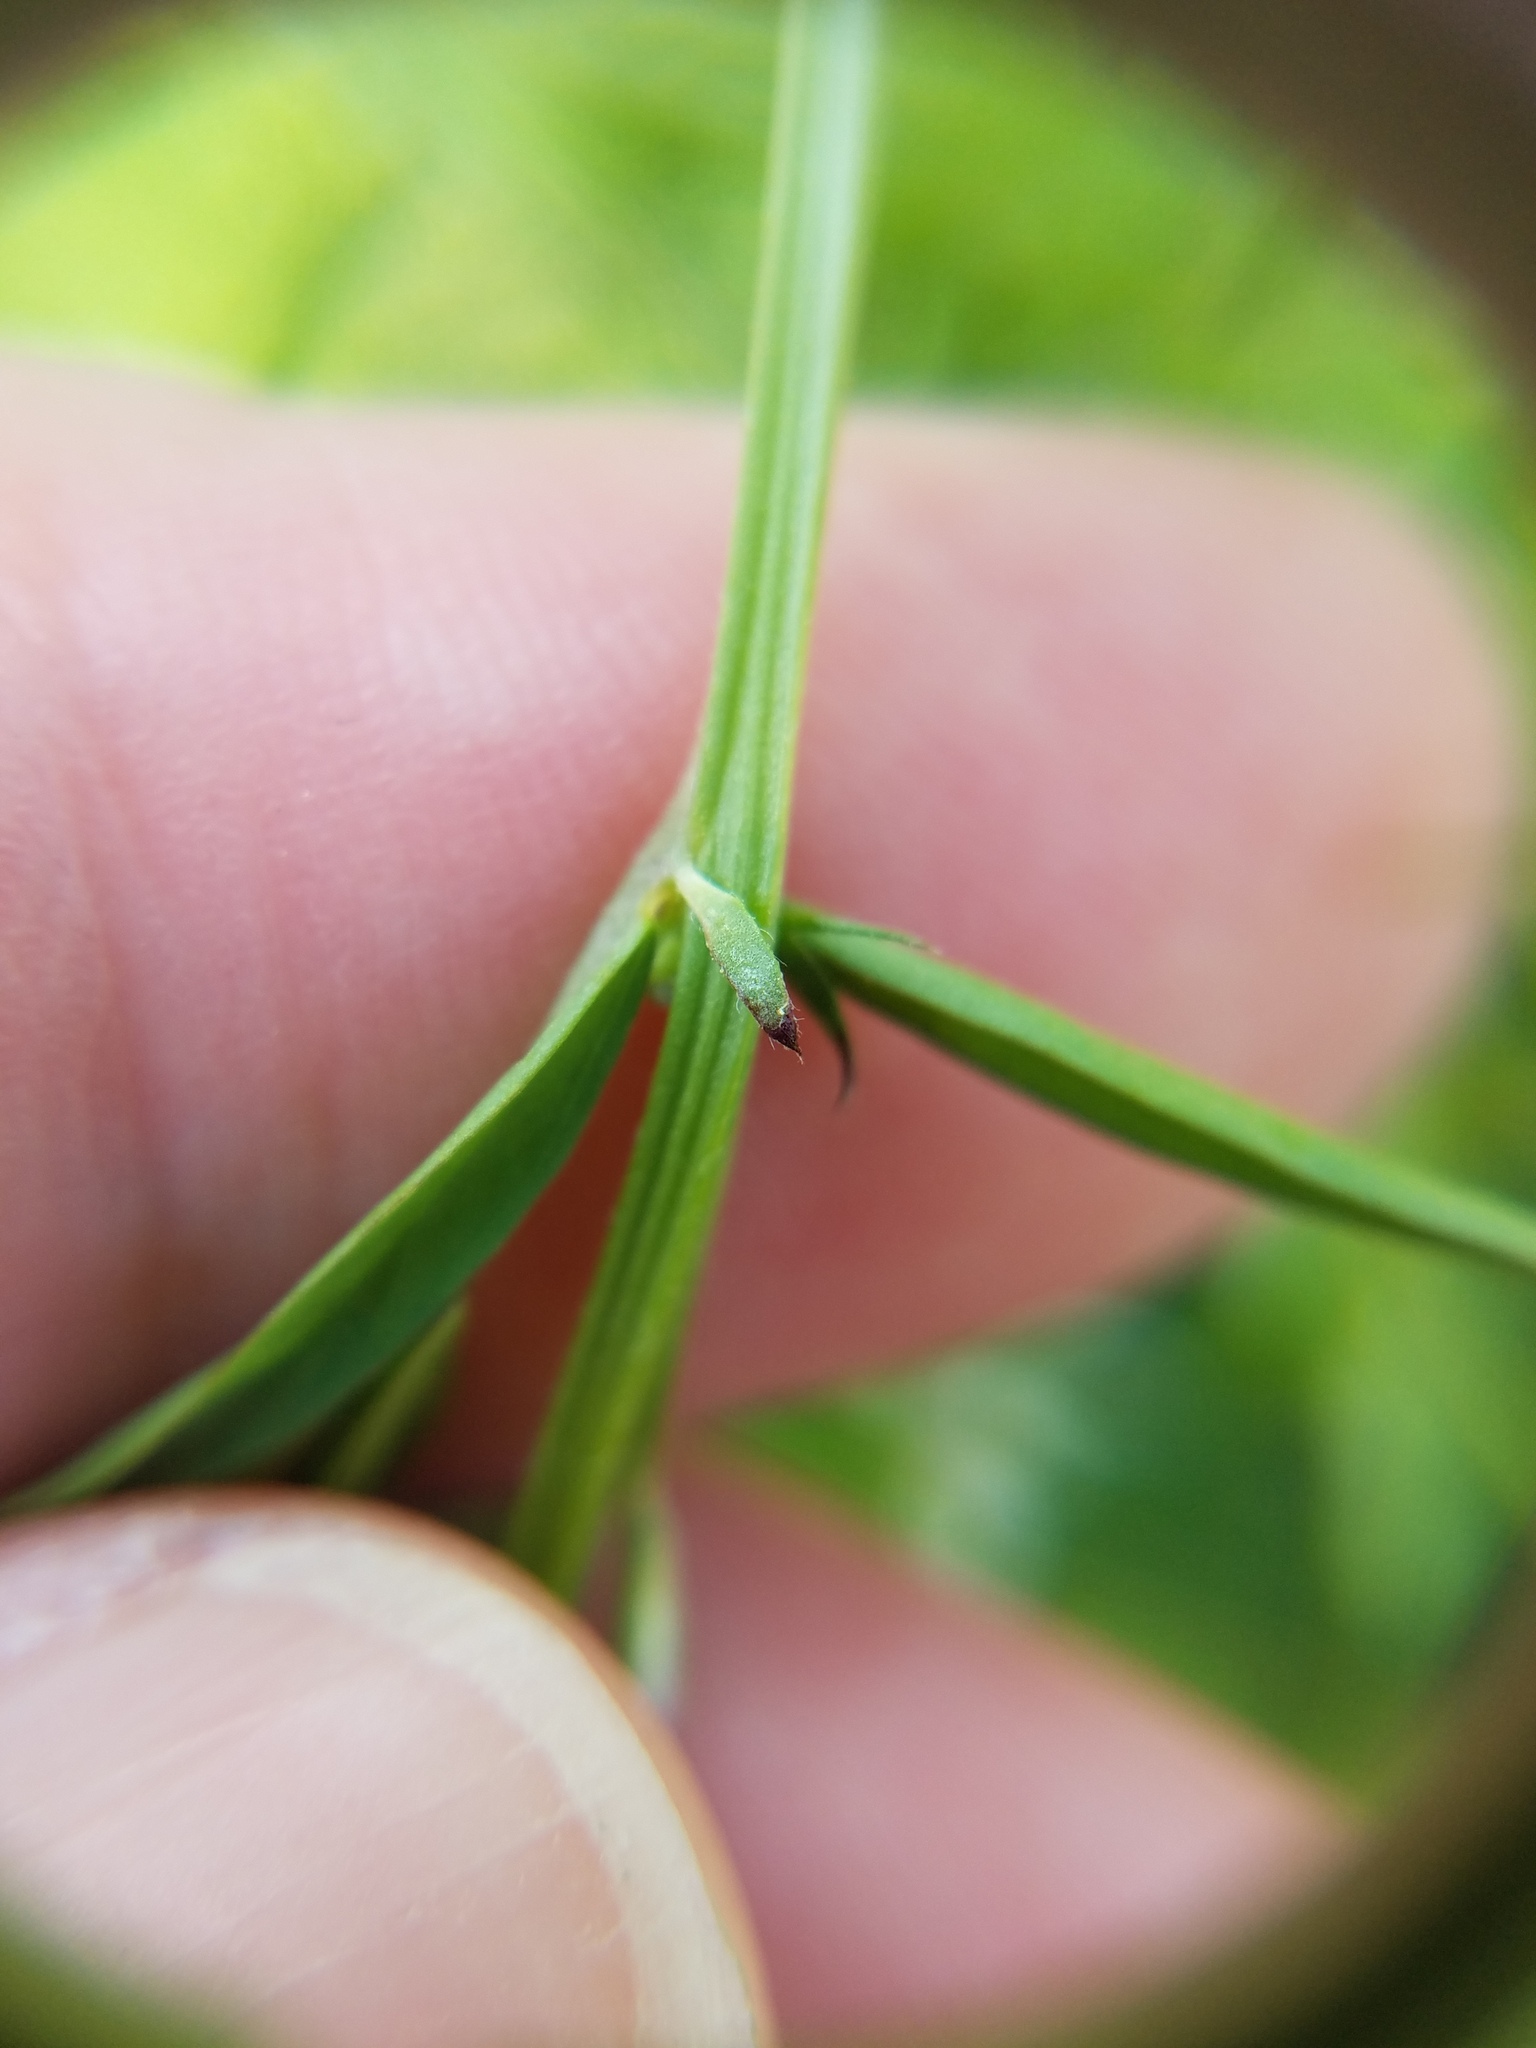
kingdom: Plantae
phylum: Tracheophyta
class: Magnoliopsida
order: Fabales
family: Fabaceae
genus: Vicia
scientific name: Vicia hirsuta
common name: Tiny vetch
